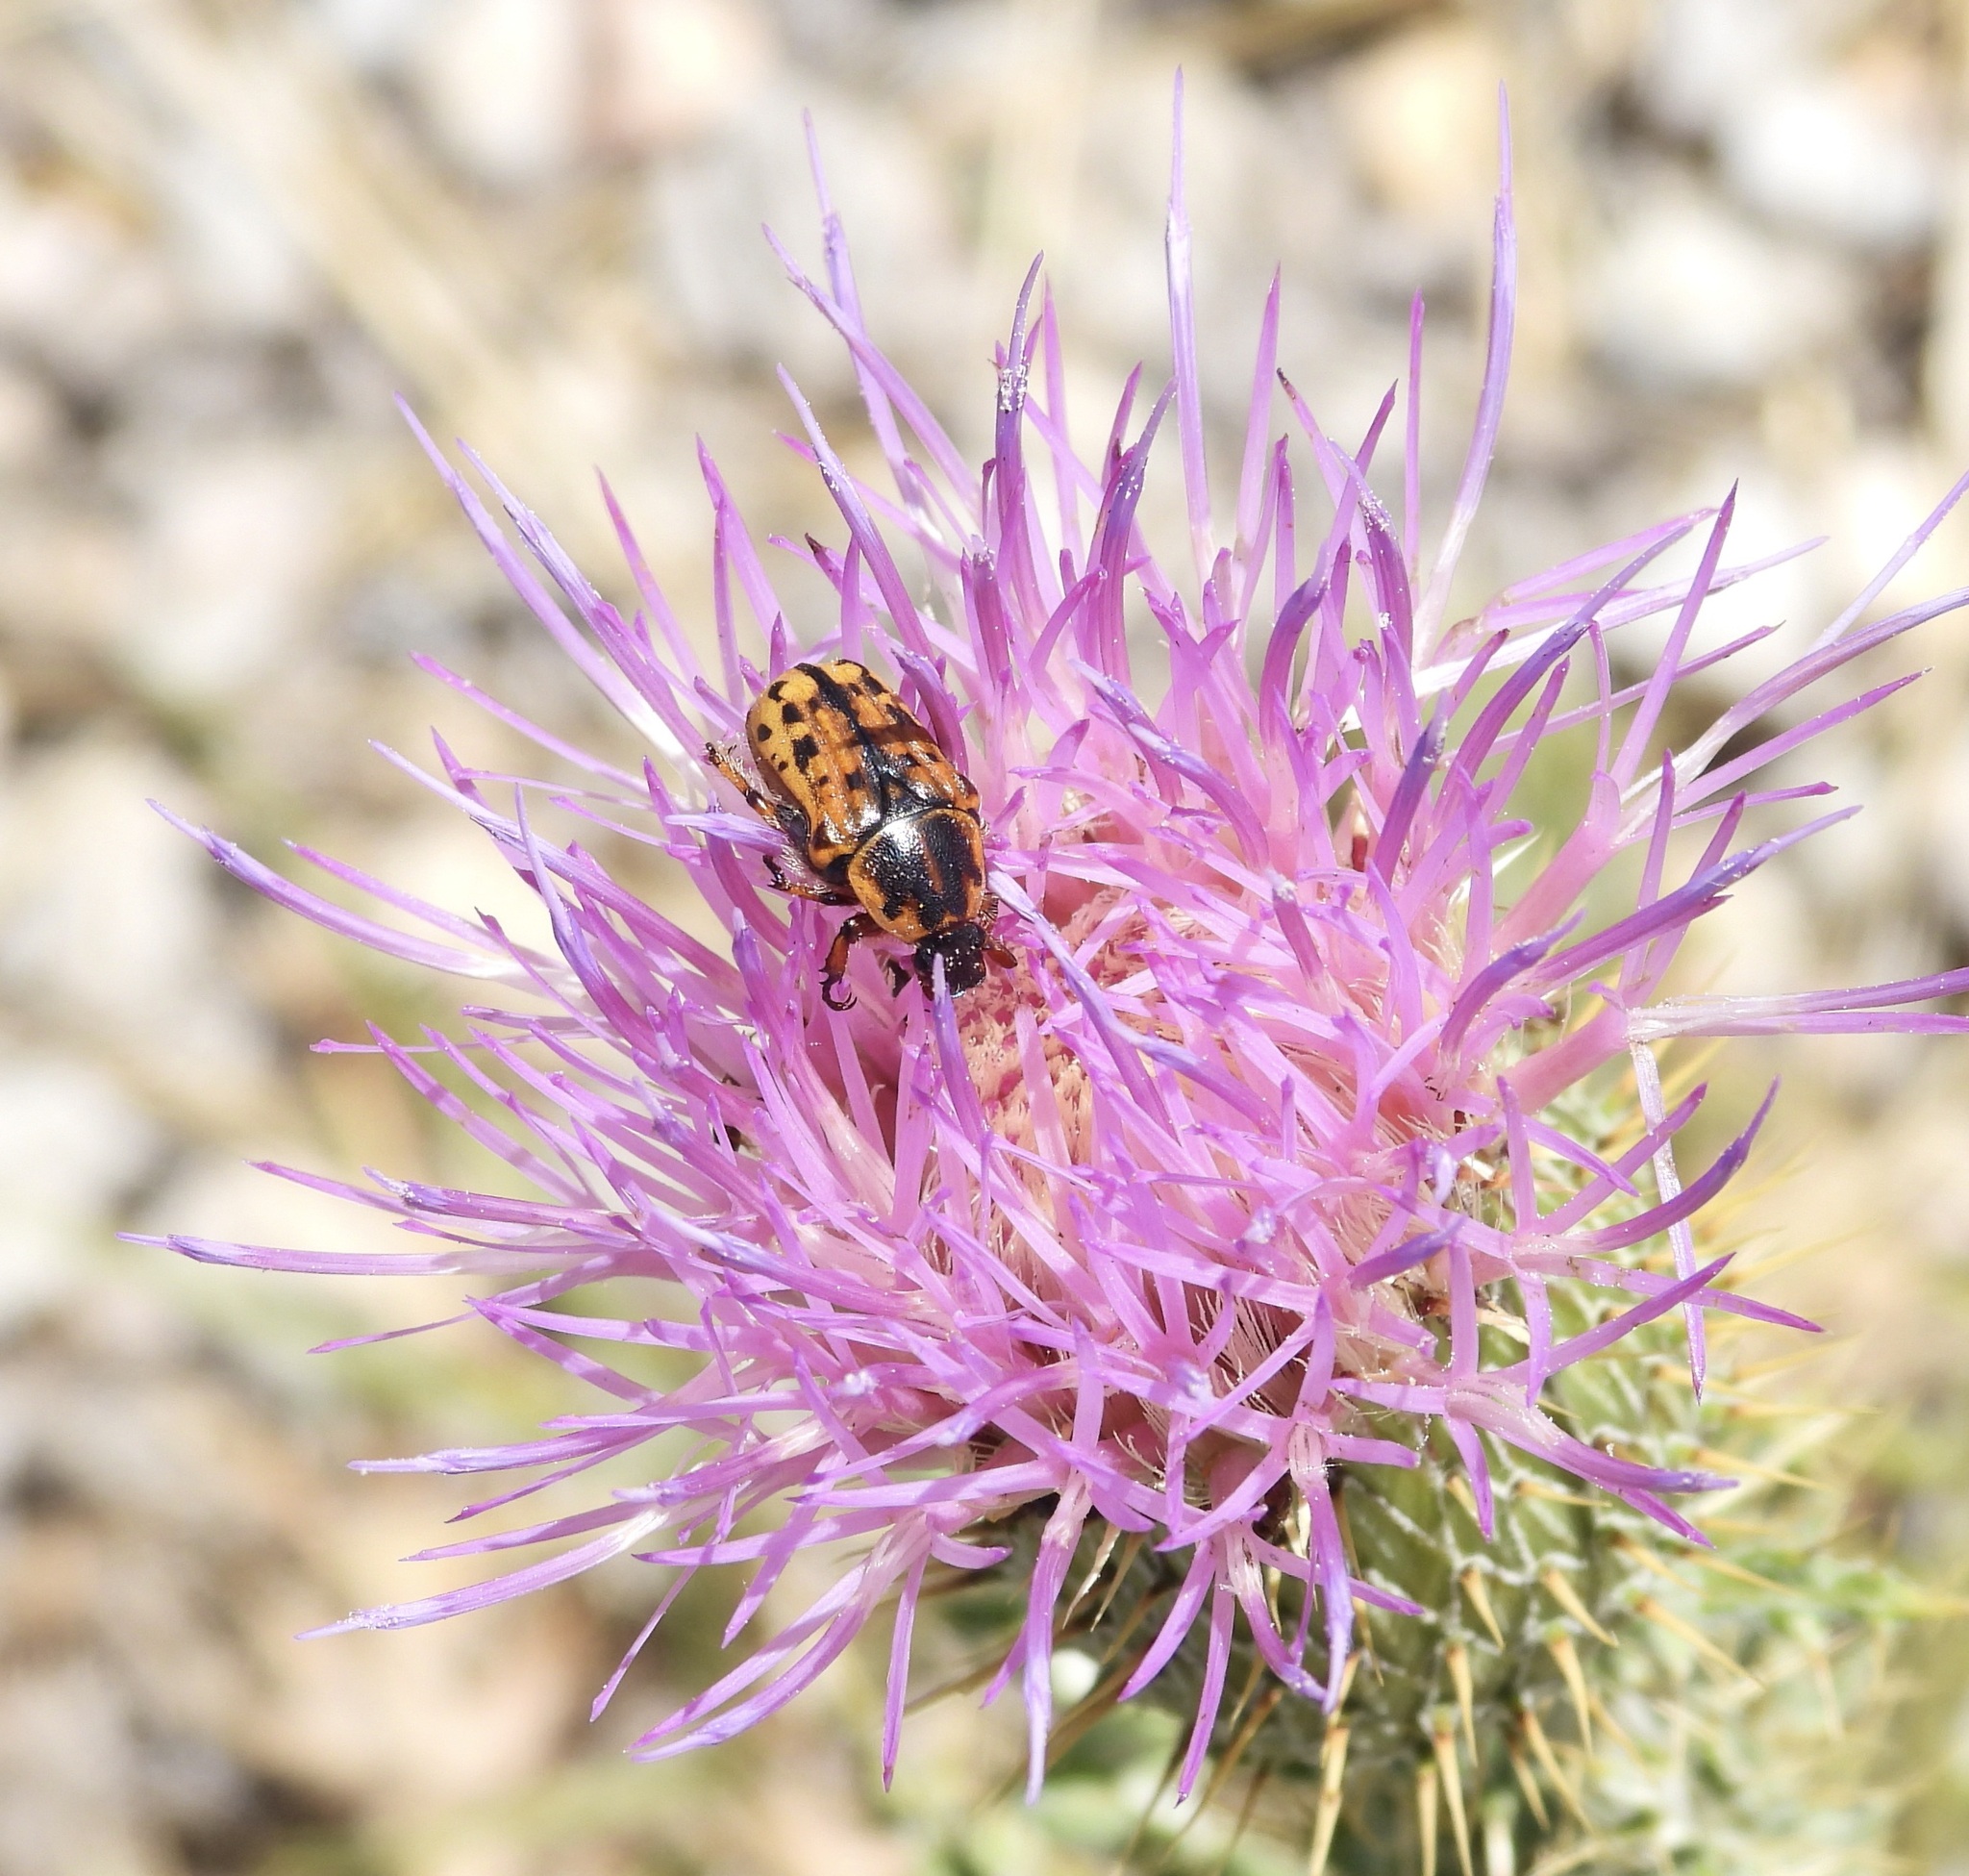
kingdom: Animalia
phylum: Arthropoda
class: Insecta
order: Coleoptera
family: Scarabaeidae
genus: Euphoria
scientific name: Euphoria kernii
